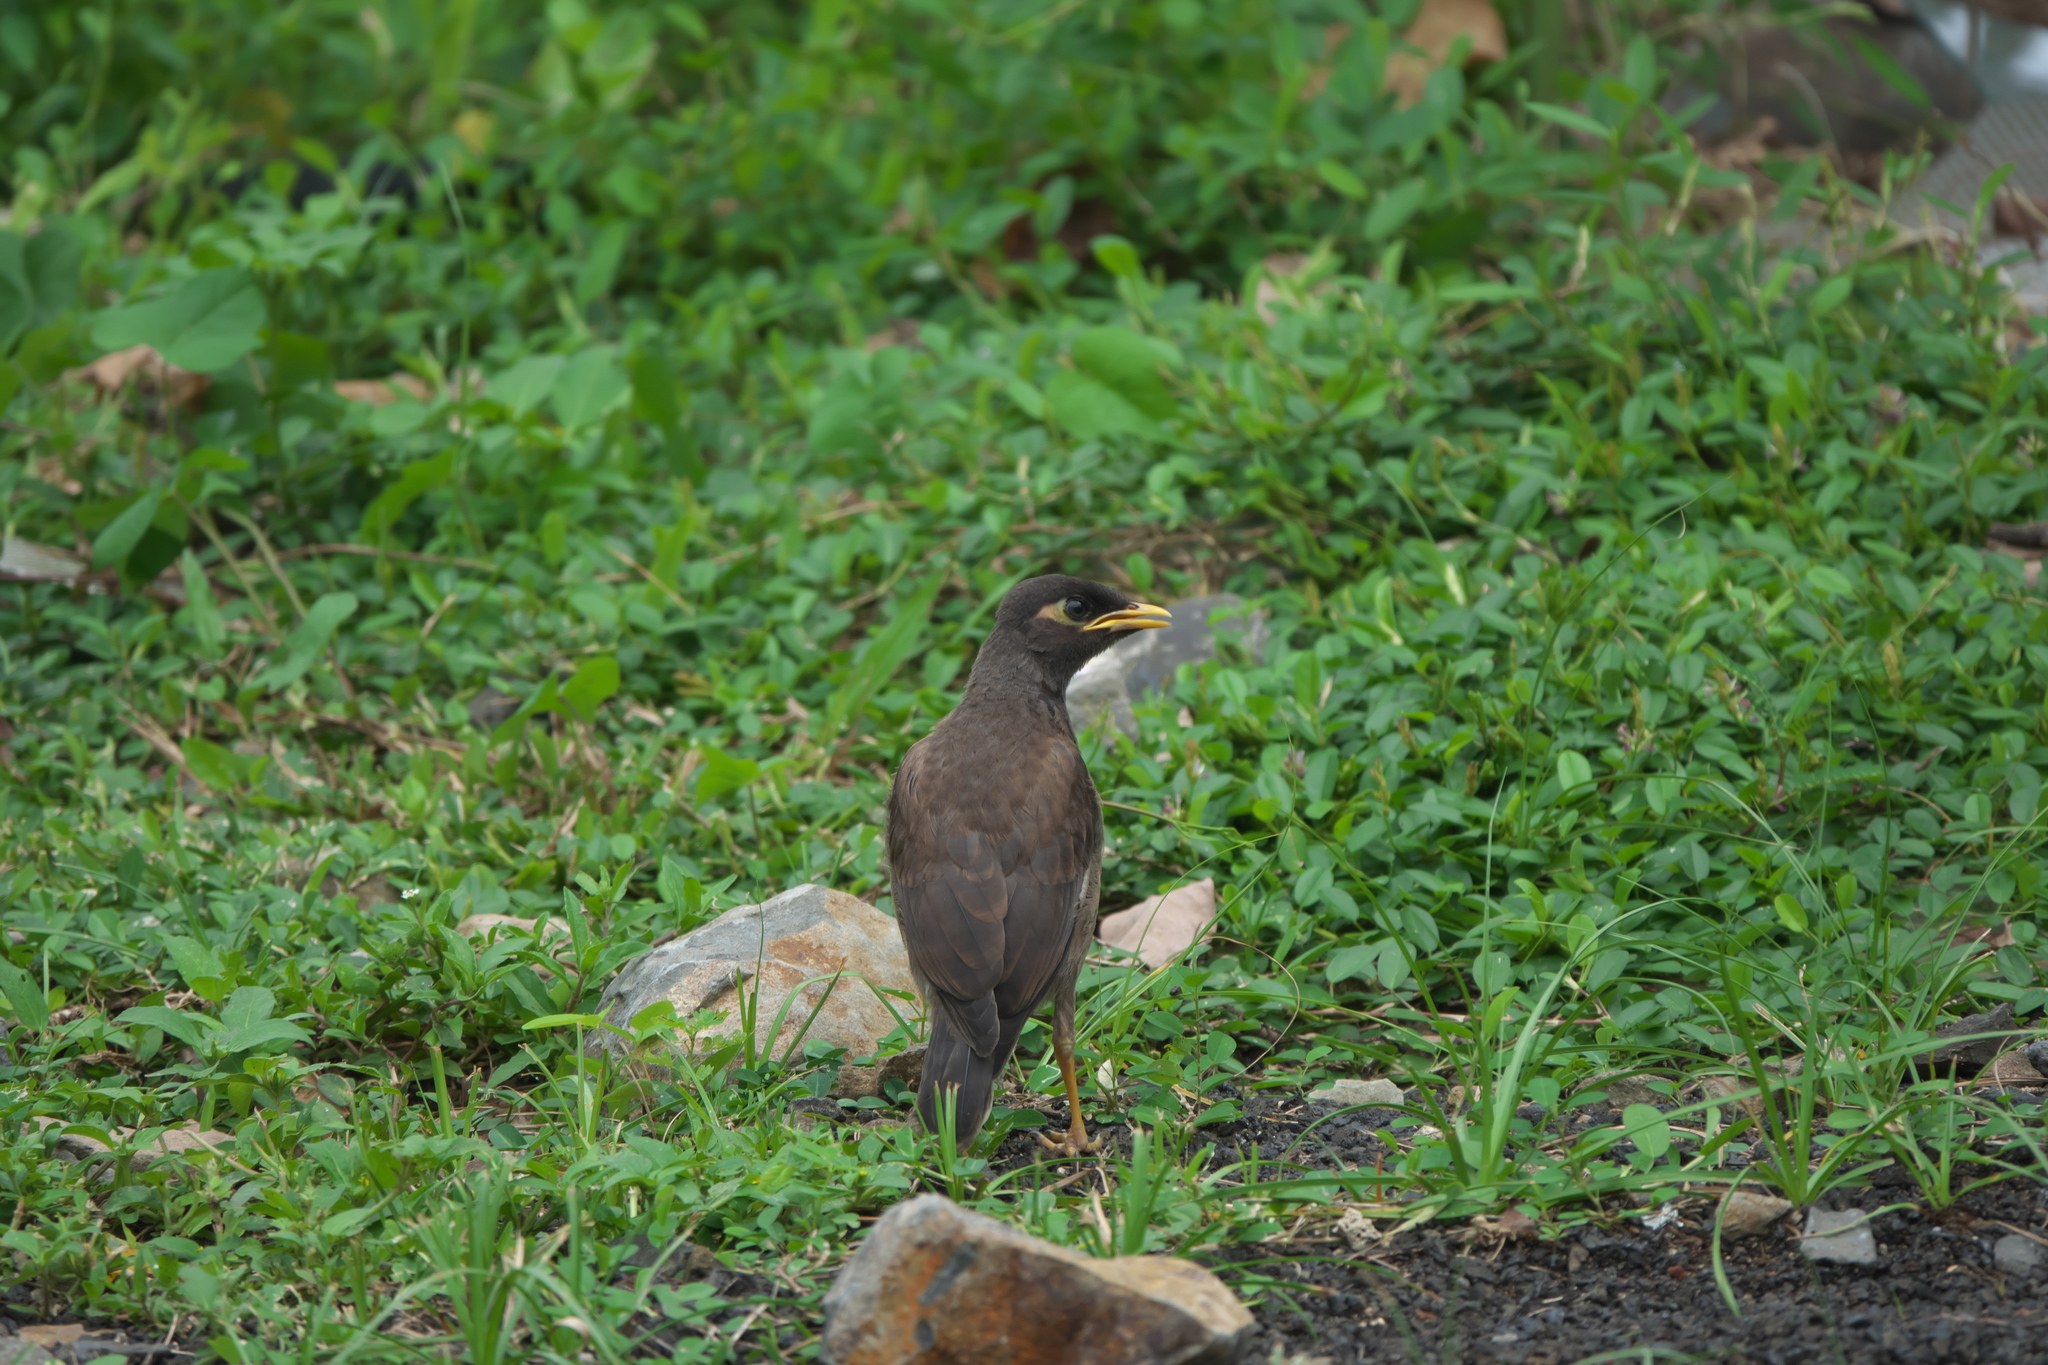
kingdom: Animalia
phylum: Chordata
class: Aves
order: Passeriformes
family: Sturnidae
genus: Acridotheres
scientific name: Acridotheres tristis
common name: Common myna
